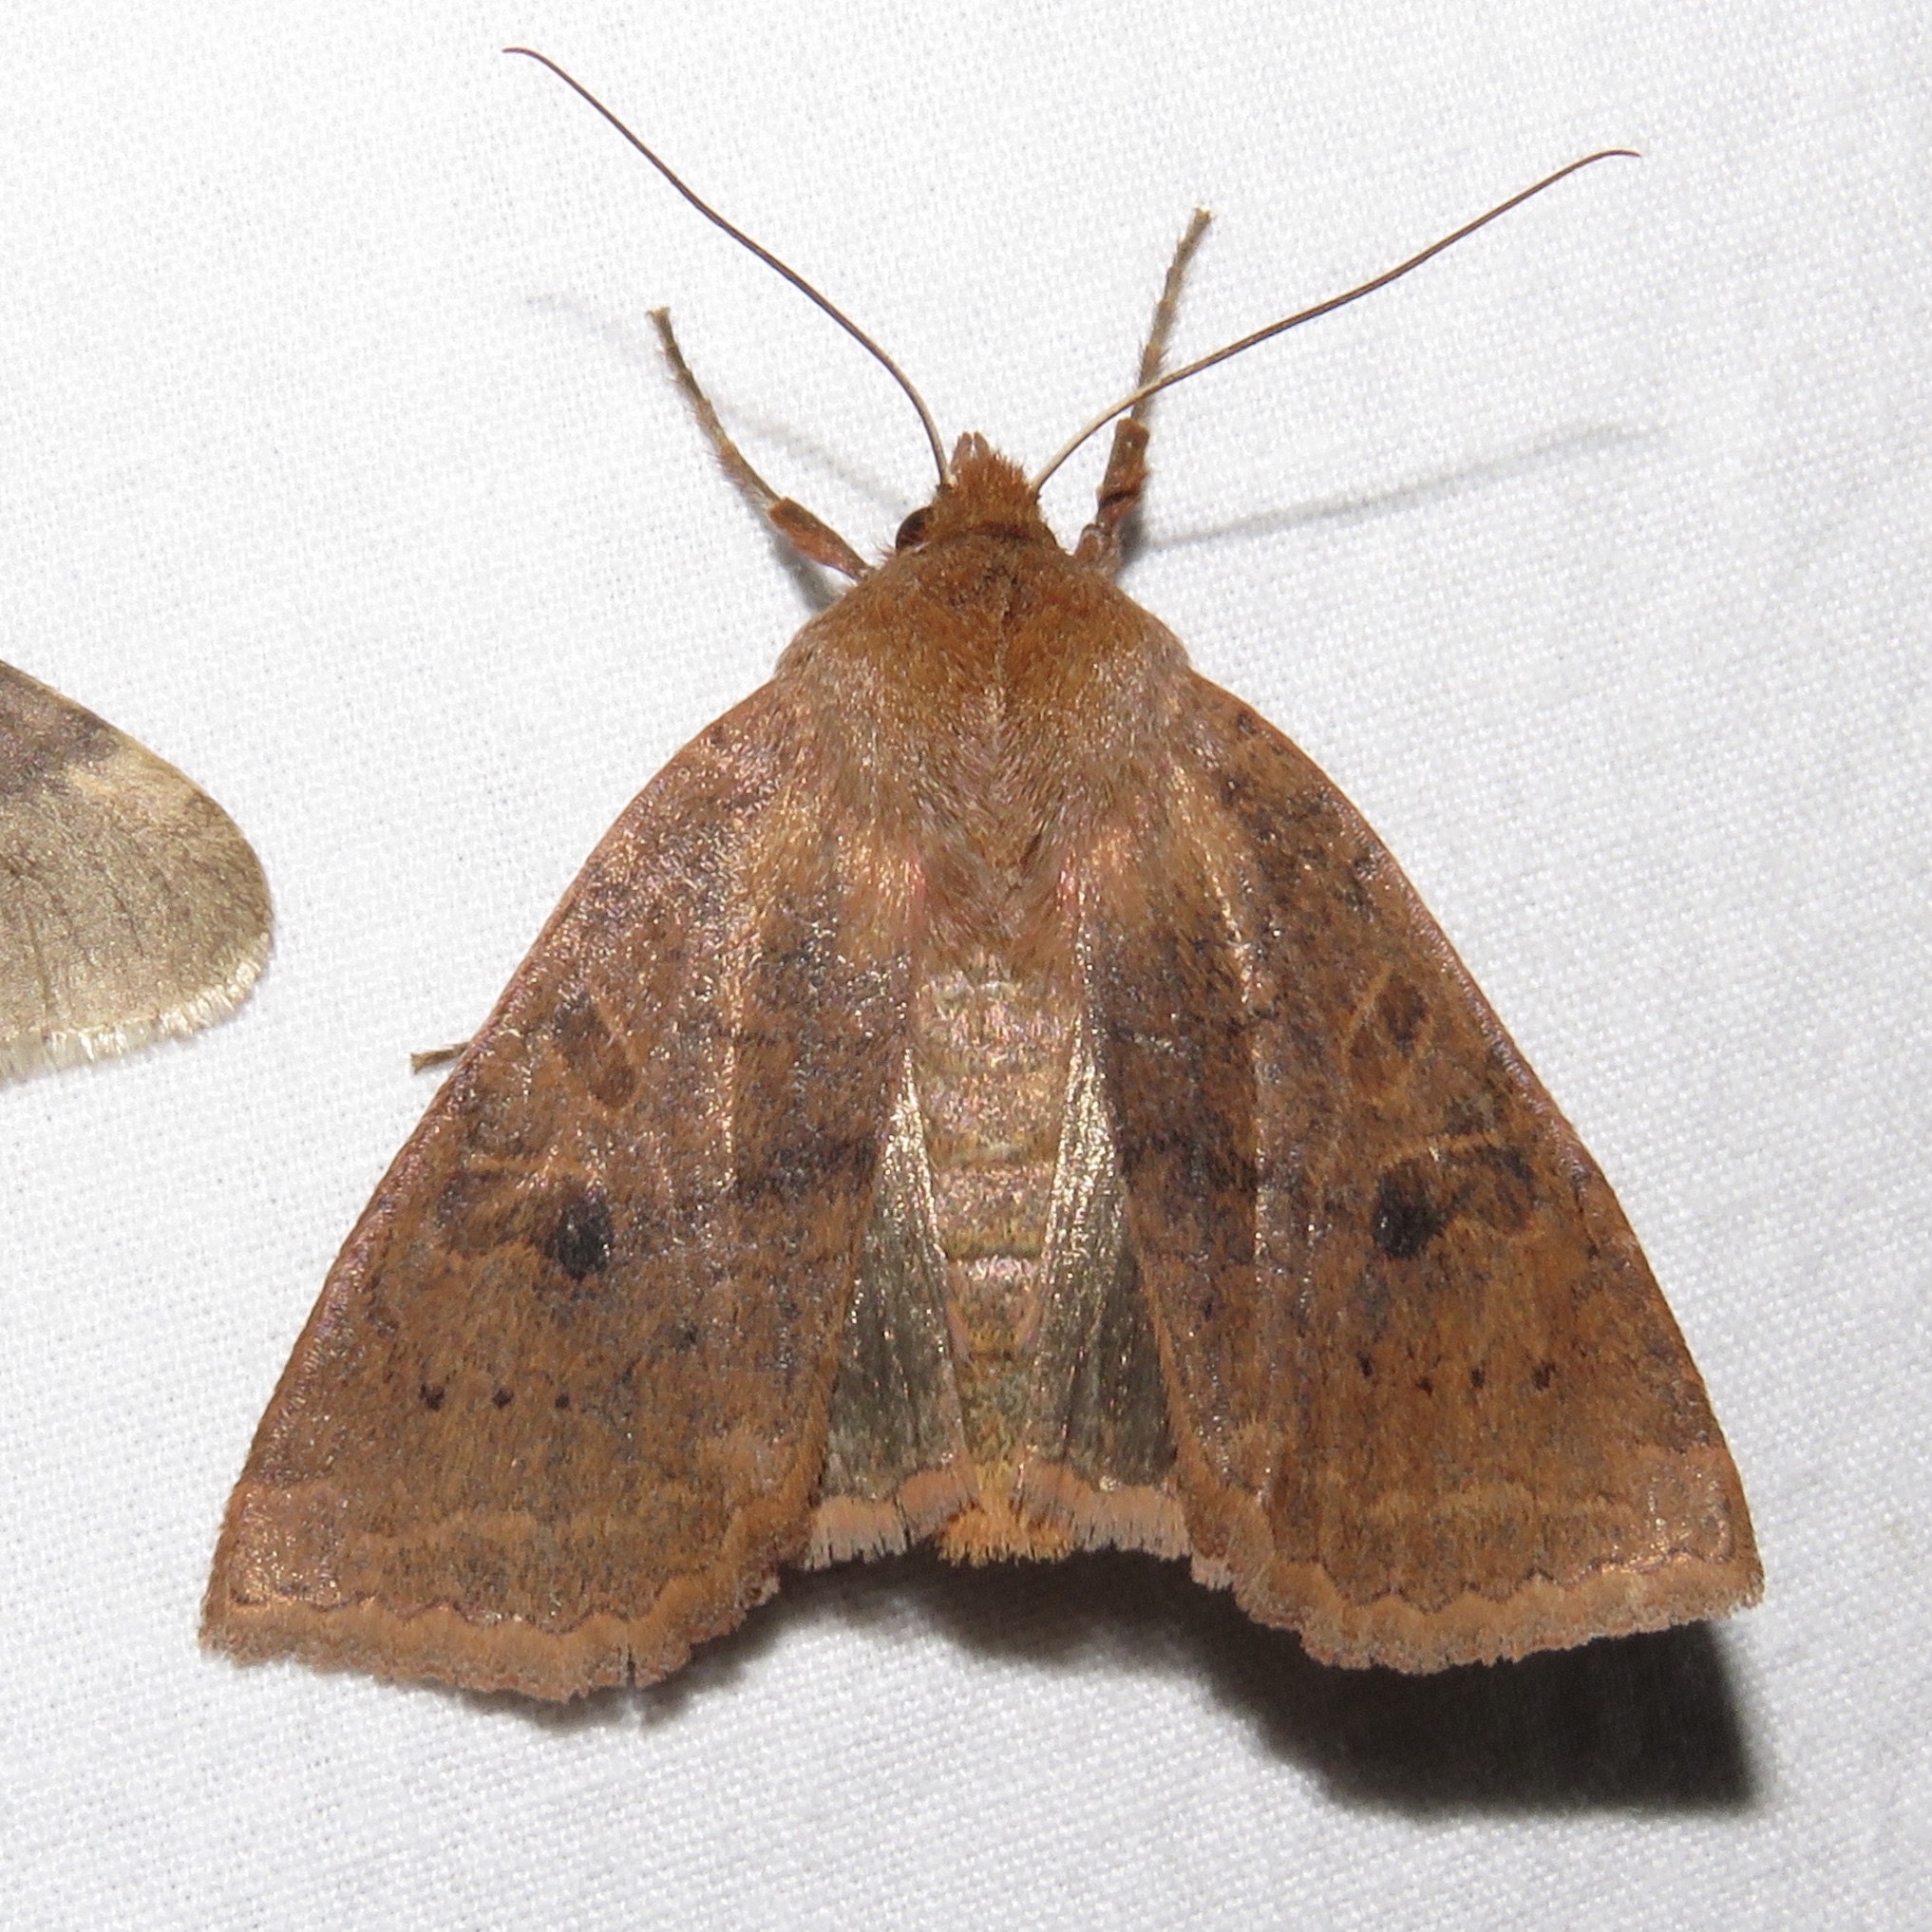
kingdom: Animalia
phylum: Arthropoda
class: Insecta
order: Lepidoptera
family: Noctuidae
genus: Epiglaea
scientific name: Epiglaea decliva
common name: Sloping sallow
